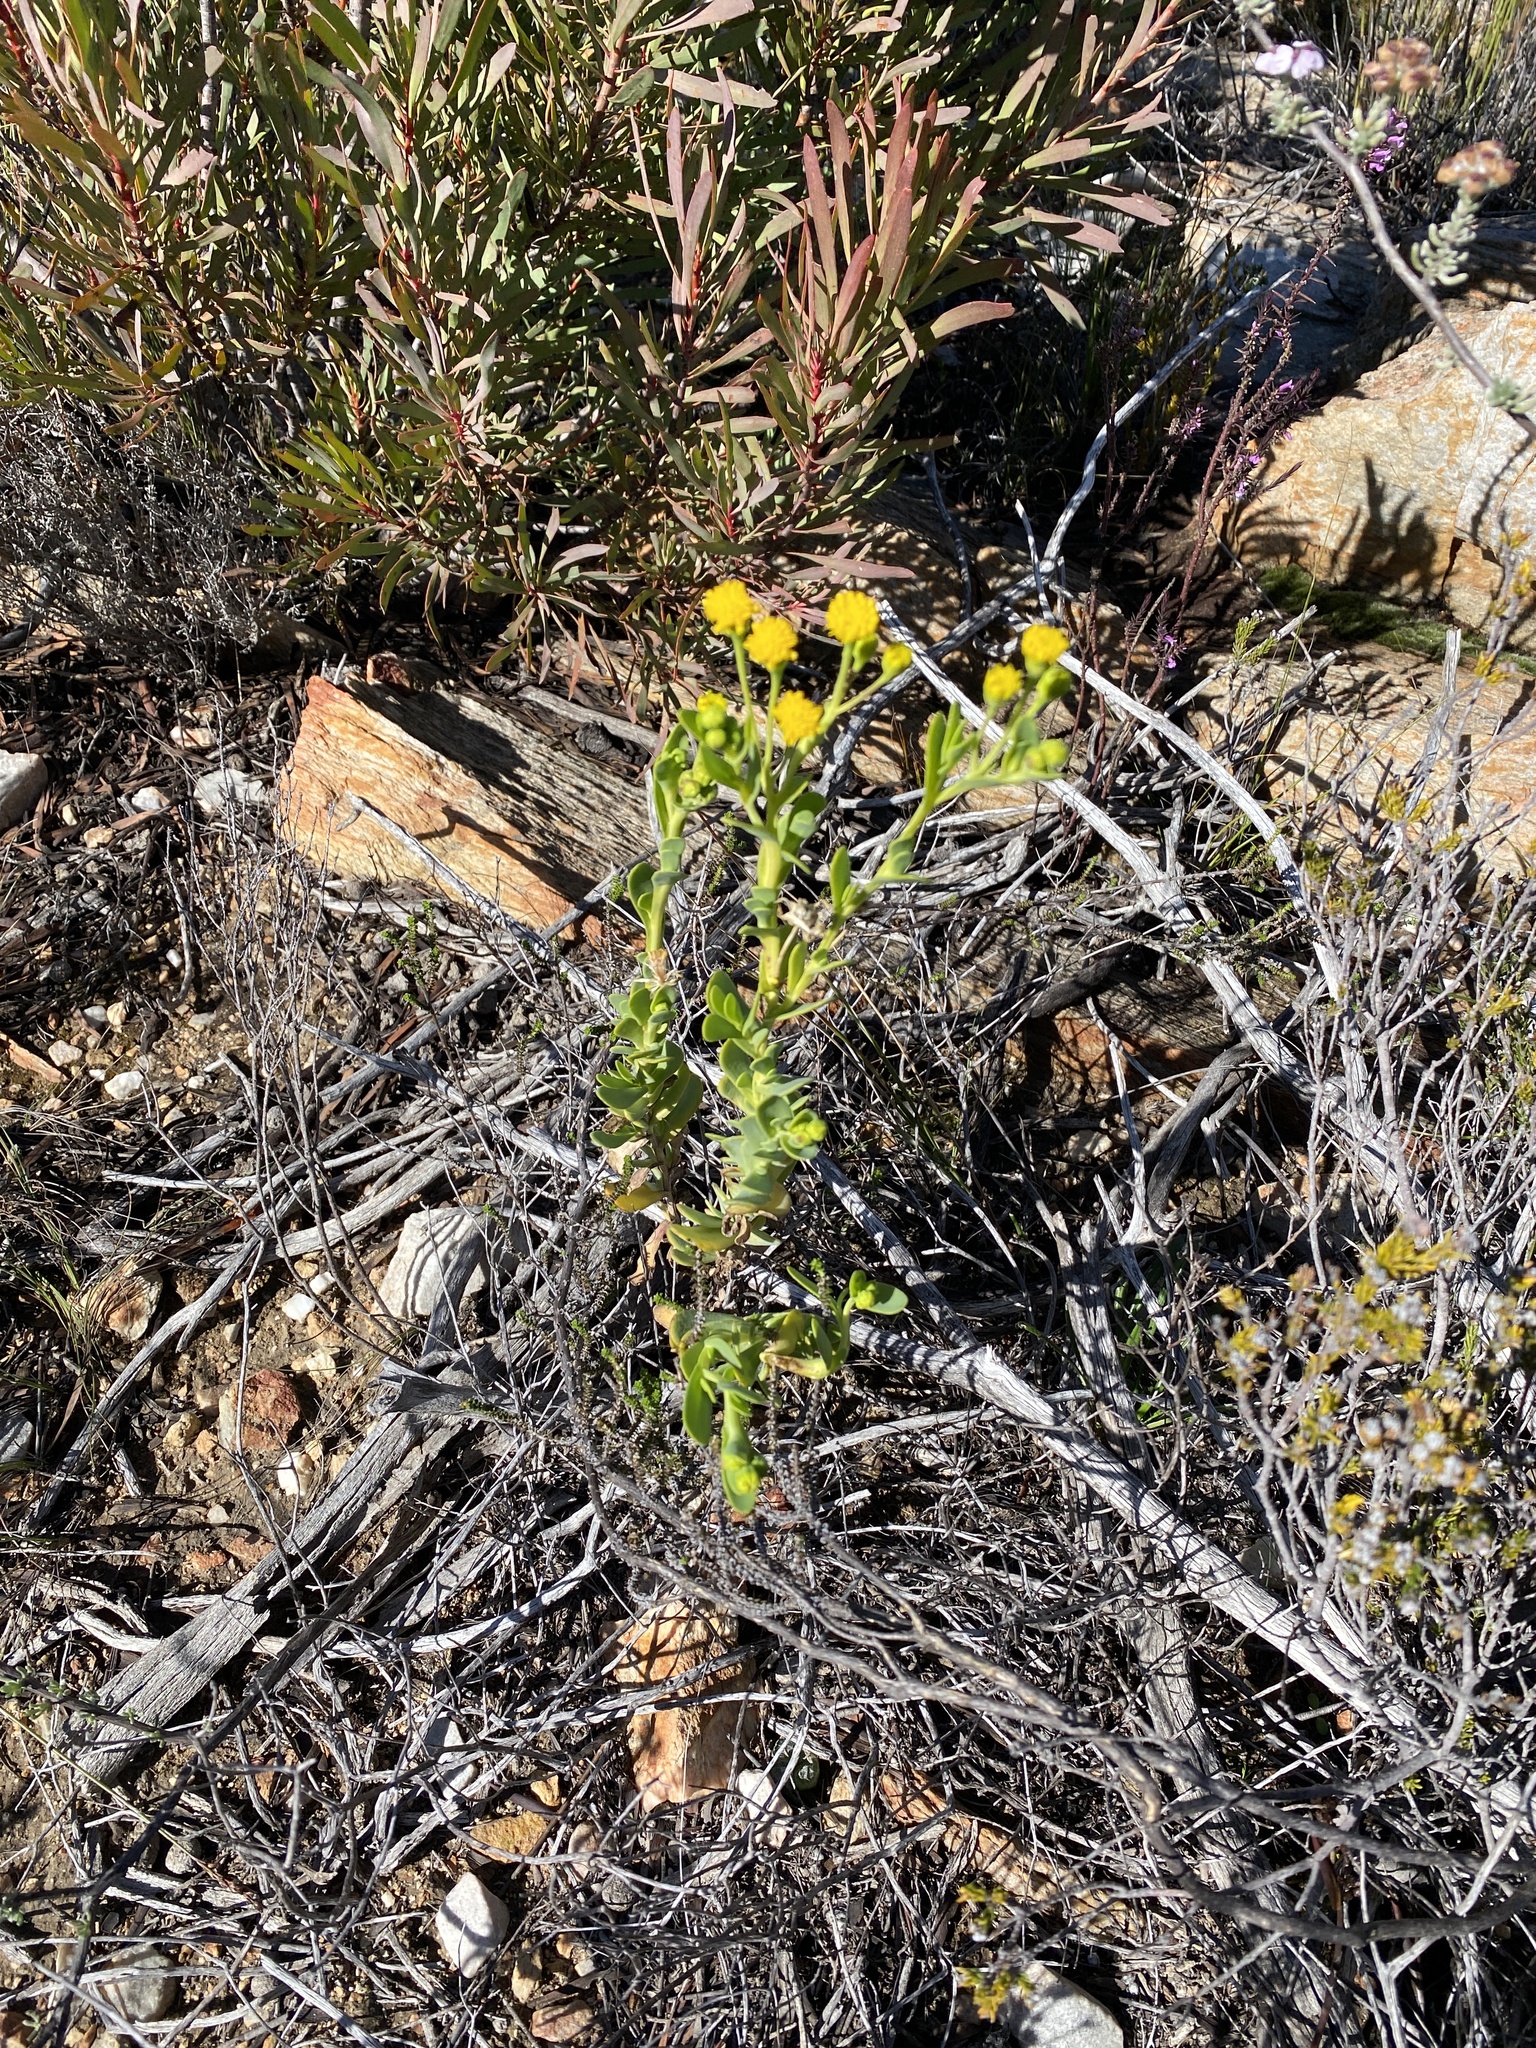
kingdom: Plantae
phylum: Tracheophyta
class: Magnoliopsida
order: Asterales
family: Asteraceae
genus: Hertia
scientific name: Hertia kraussii
